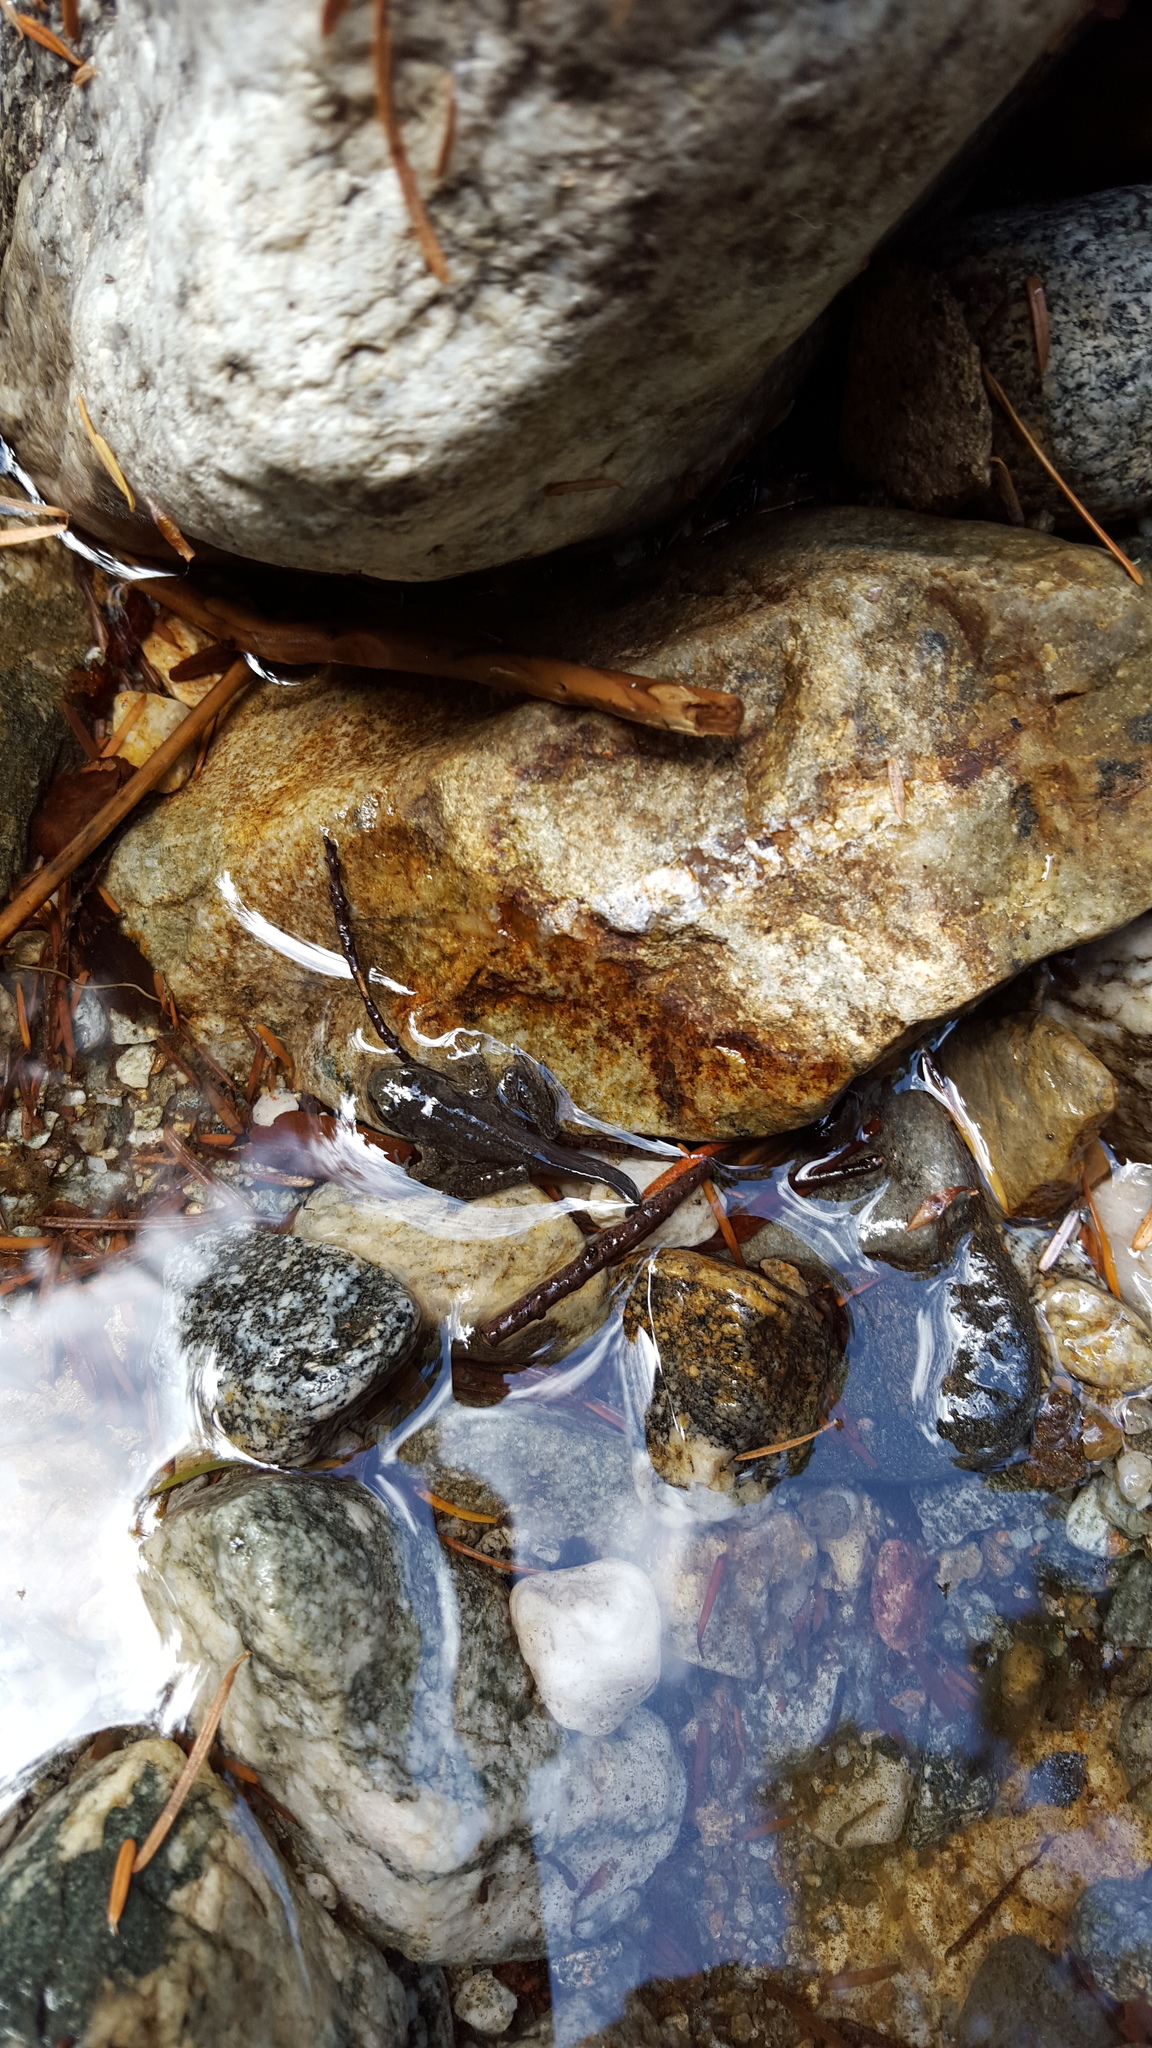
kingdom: Animalia
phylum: Chordata
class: Amphibia
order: Anura
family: Ascaphidae
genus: Ascaphus
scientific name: Ascaphus truei
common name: Tailed frog
